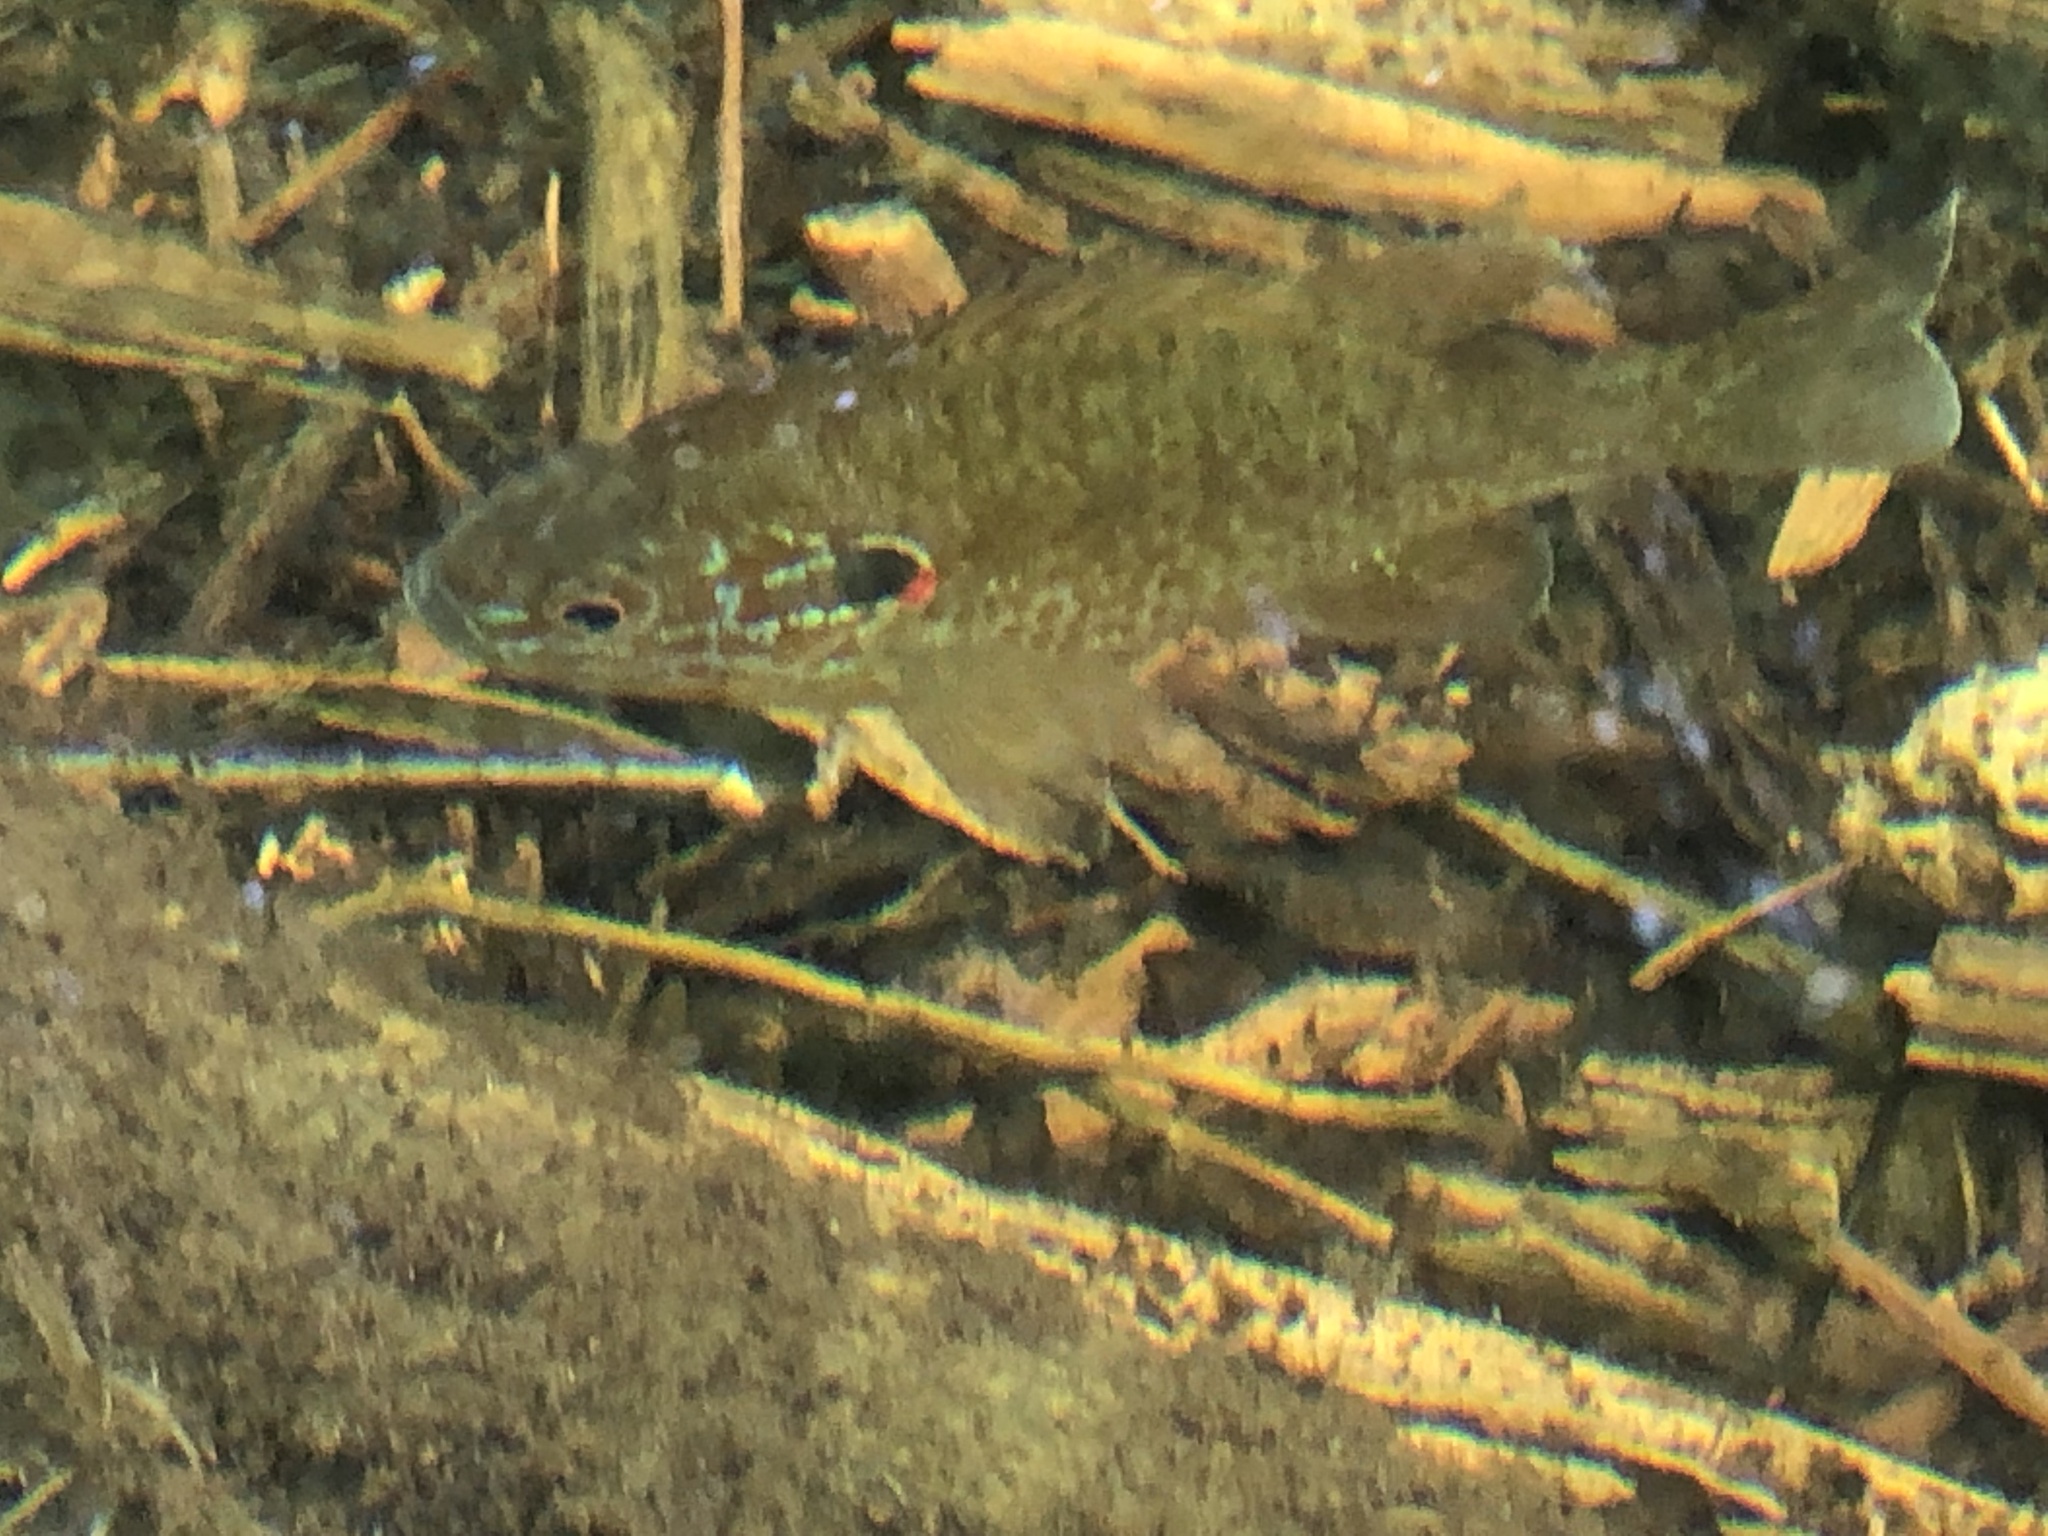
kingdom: Animalia
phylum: Chordata
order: Perciformes
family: Centrarchidae
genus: Lepomis
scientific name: Lepomis gibbosus
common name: Pumpkinseed
